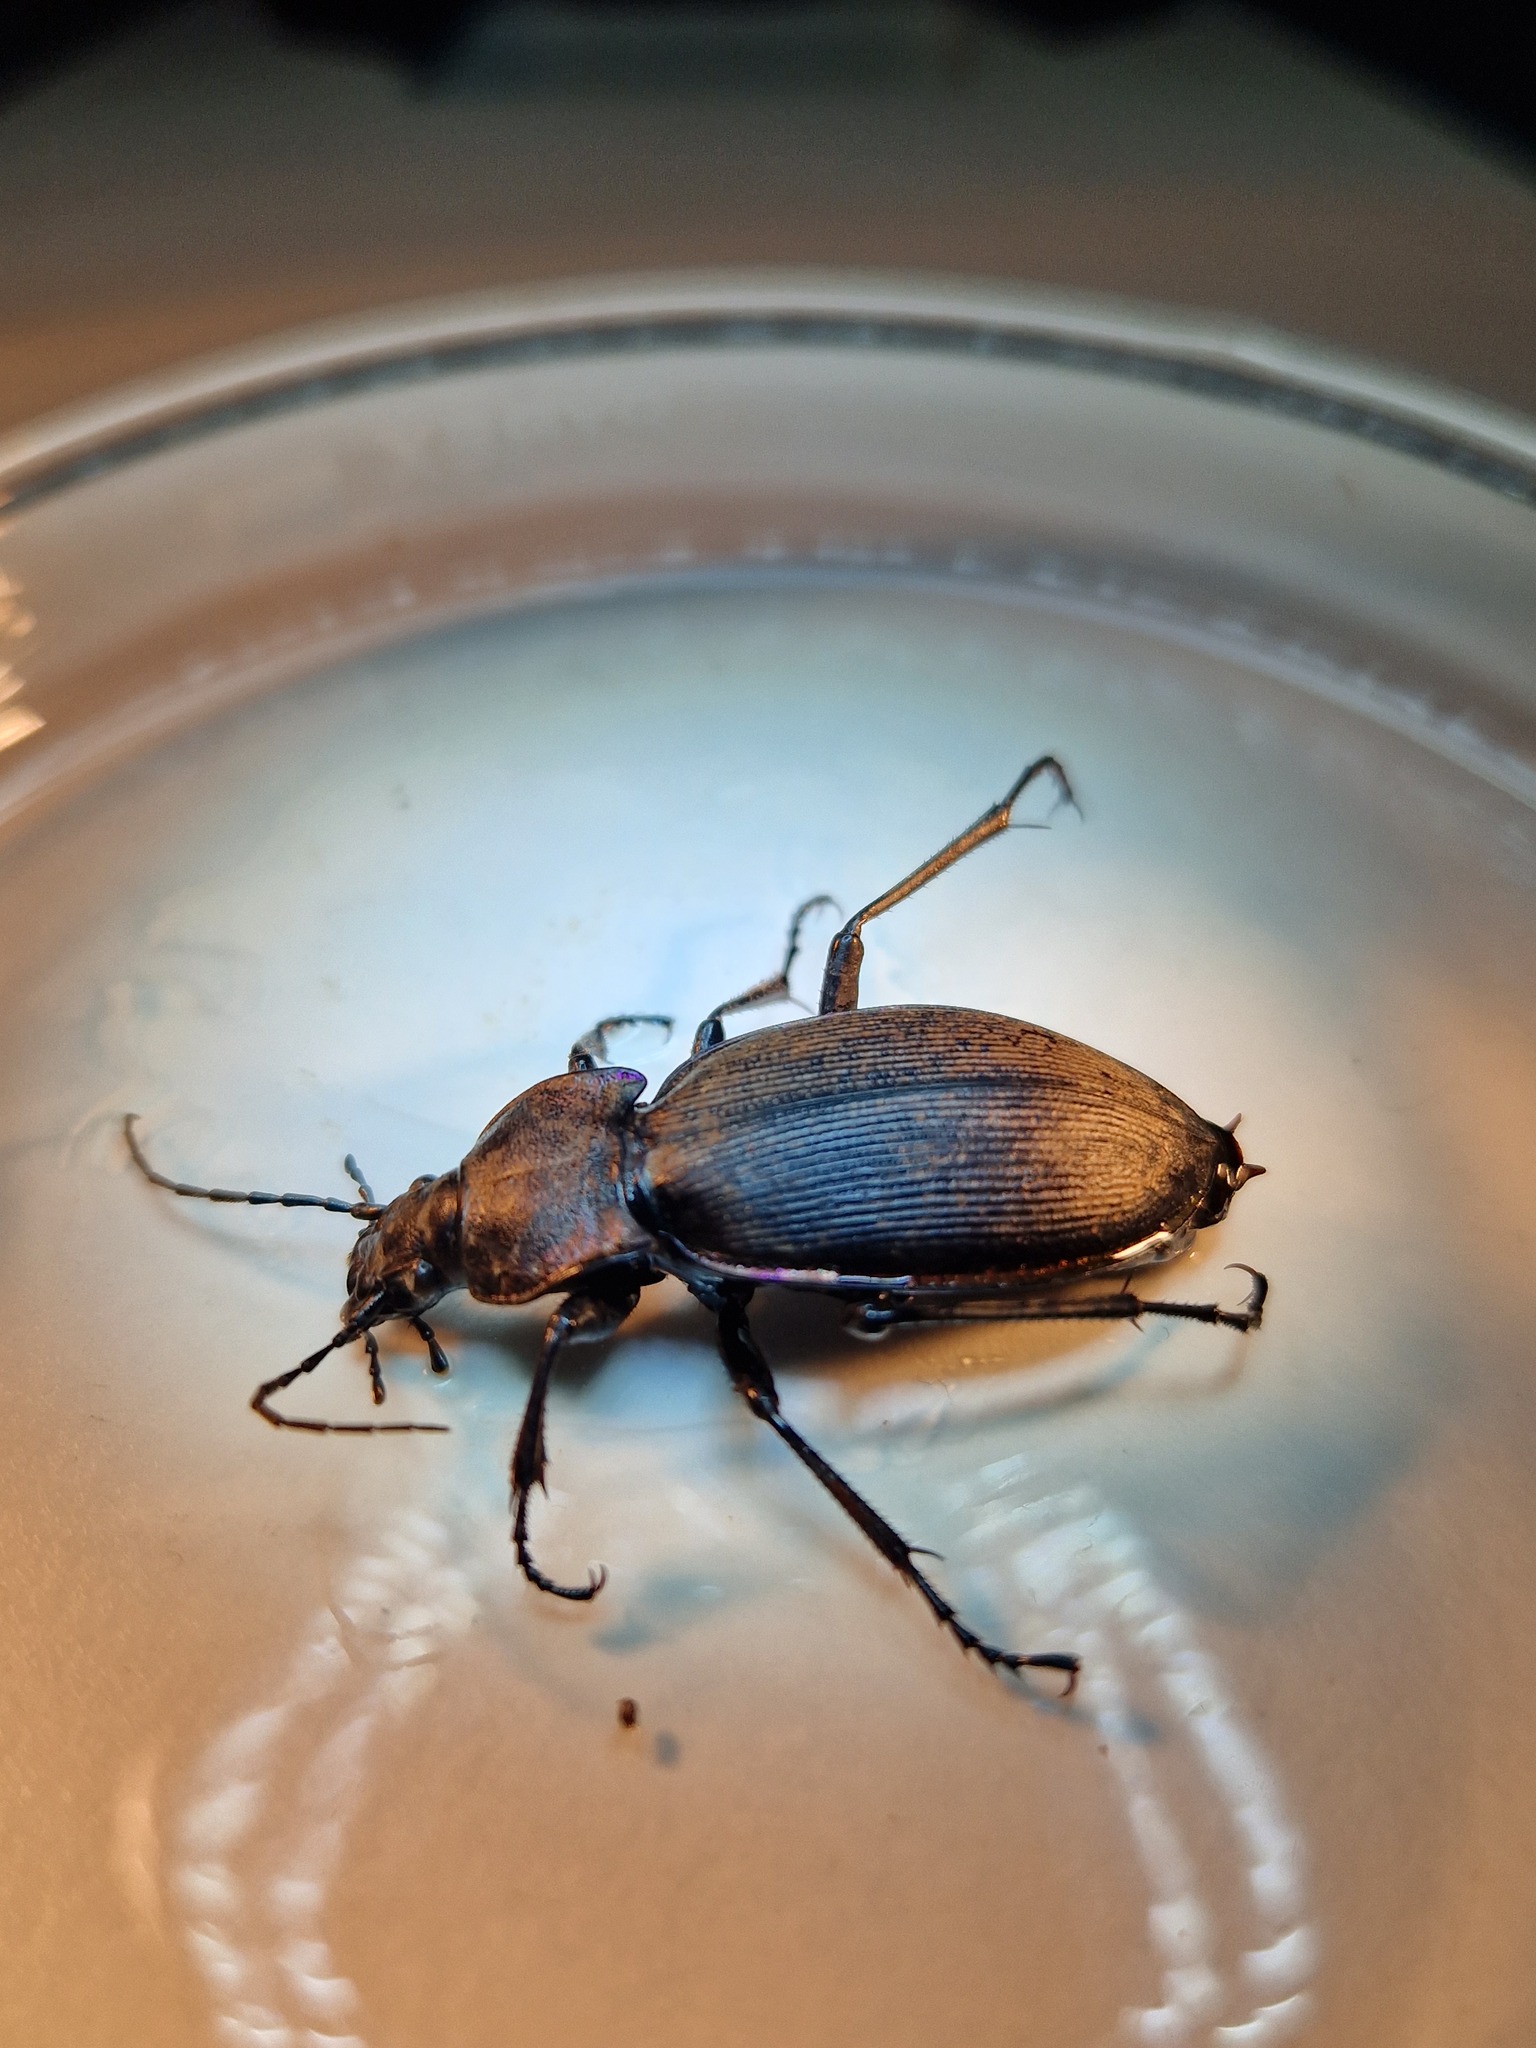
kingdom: Animalia
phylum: Arthropoda
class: Insecta
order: Coleoptera
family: Carabidae
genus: Carabus
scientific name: Carabus purpurascens
